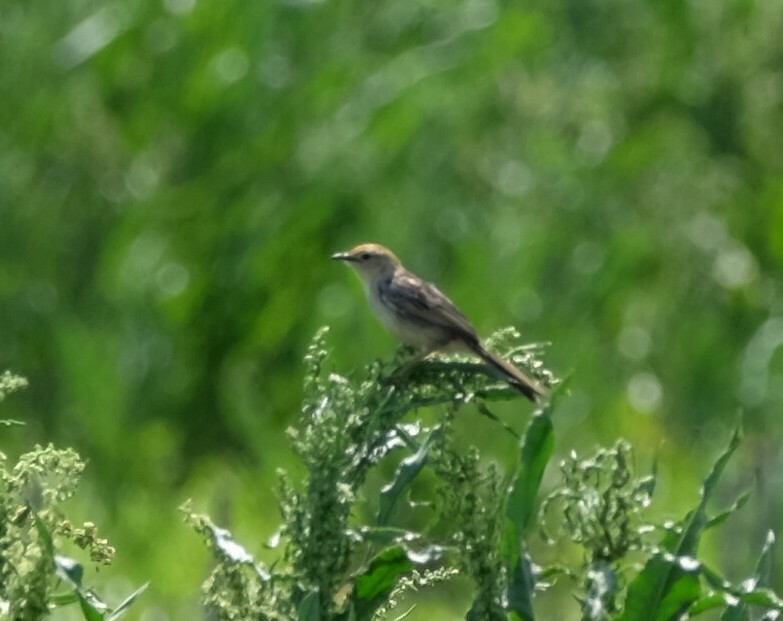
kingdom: Animalia
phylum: Chordata
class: Aves
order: Passeriformes
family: Cisticolidae
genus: Cisticola
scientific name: Cisticola tinniens
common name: Levaillant's cisticola
